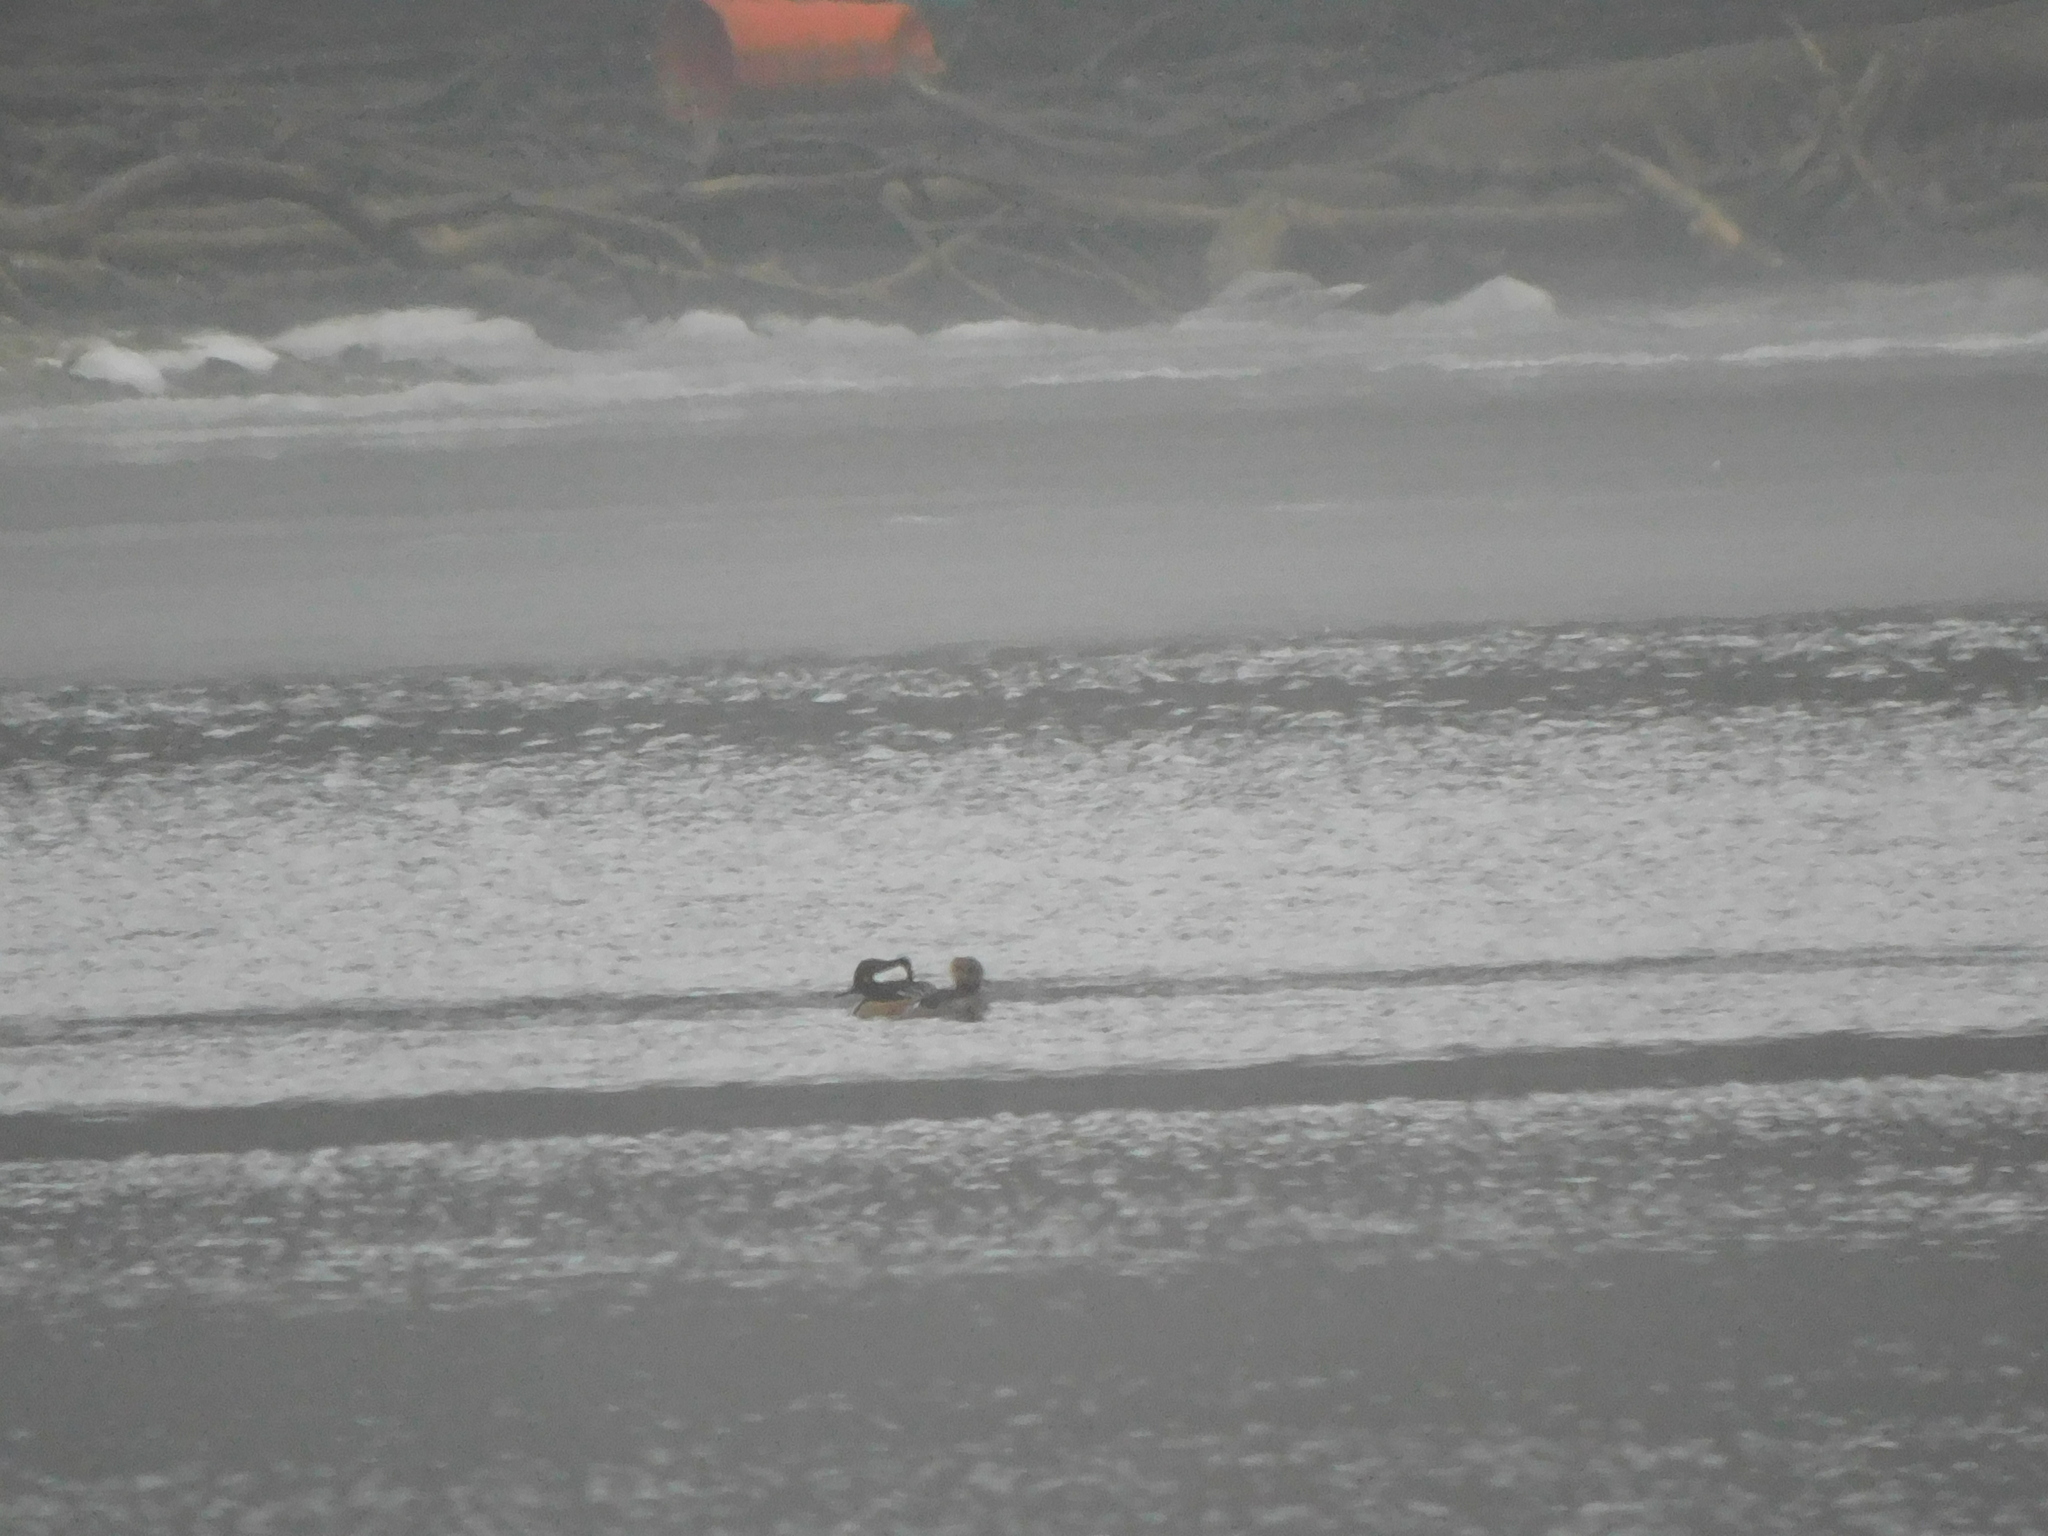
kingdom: Animalia
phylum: Chordata
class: Aves
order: Anseriformes
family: Anatidae
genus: Lophodytes
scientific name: Lophodytes cucullatus
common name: Hooded merganser
